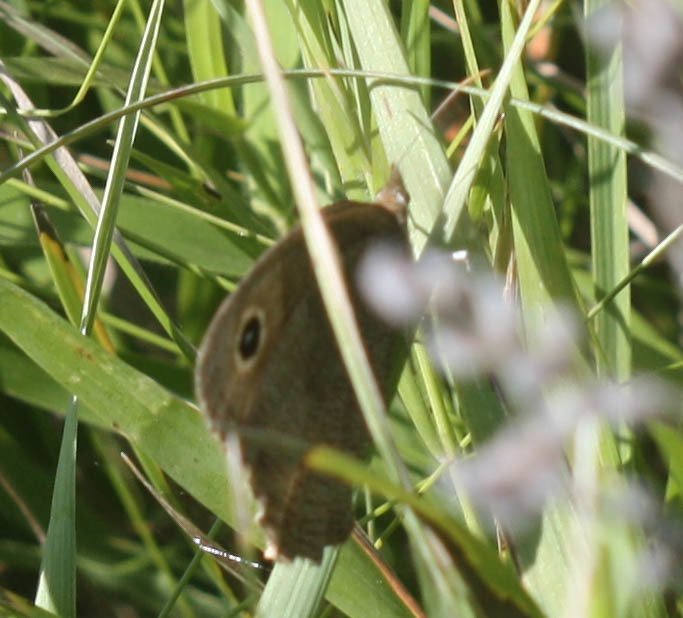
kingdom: Animalia
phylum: Arthropoda
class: Insecta
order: Lepidoptera
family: Nymphalidae
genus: Cercyonis
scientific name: Cercyonis pegala
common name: Common wood-nymph
